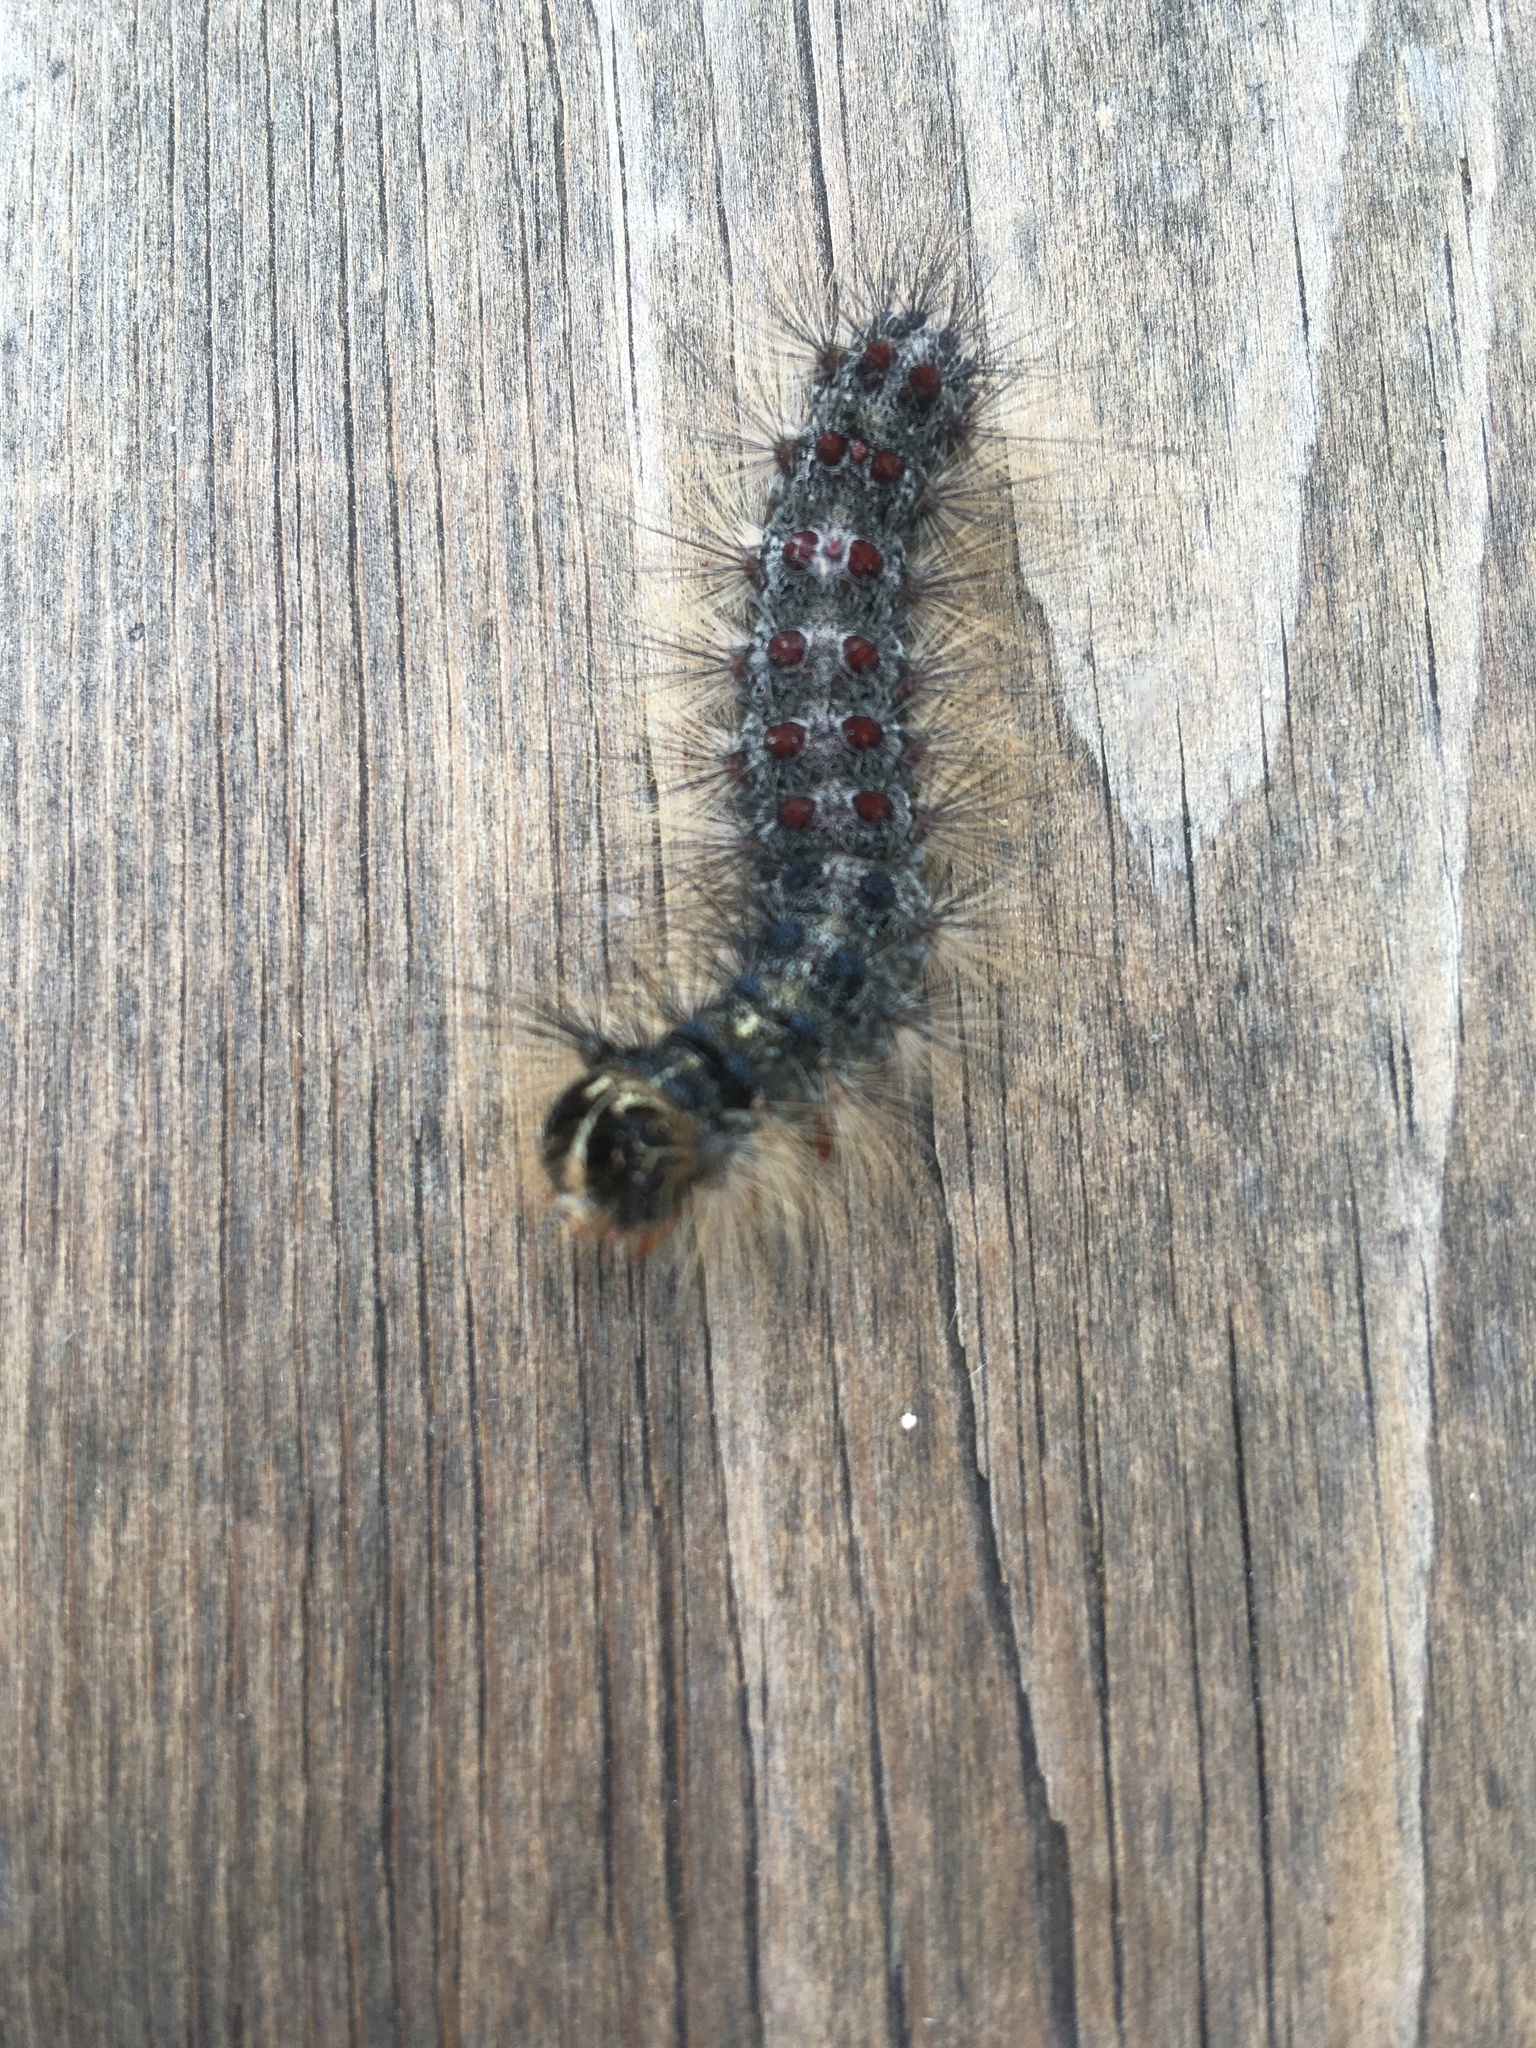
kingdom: Animalia
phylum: Arthropoda
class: Insecta
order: Lepidoptera
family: Erebidae
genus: Lymantria
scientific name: Lymantria dispar
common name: Gypsy moth
